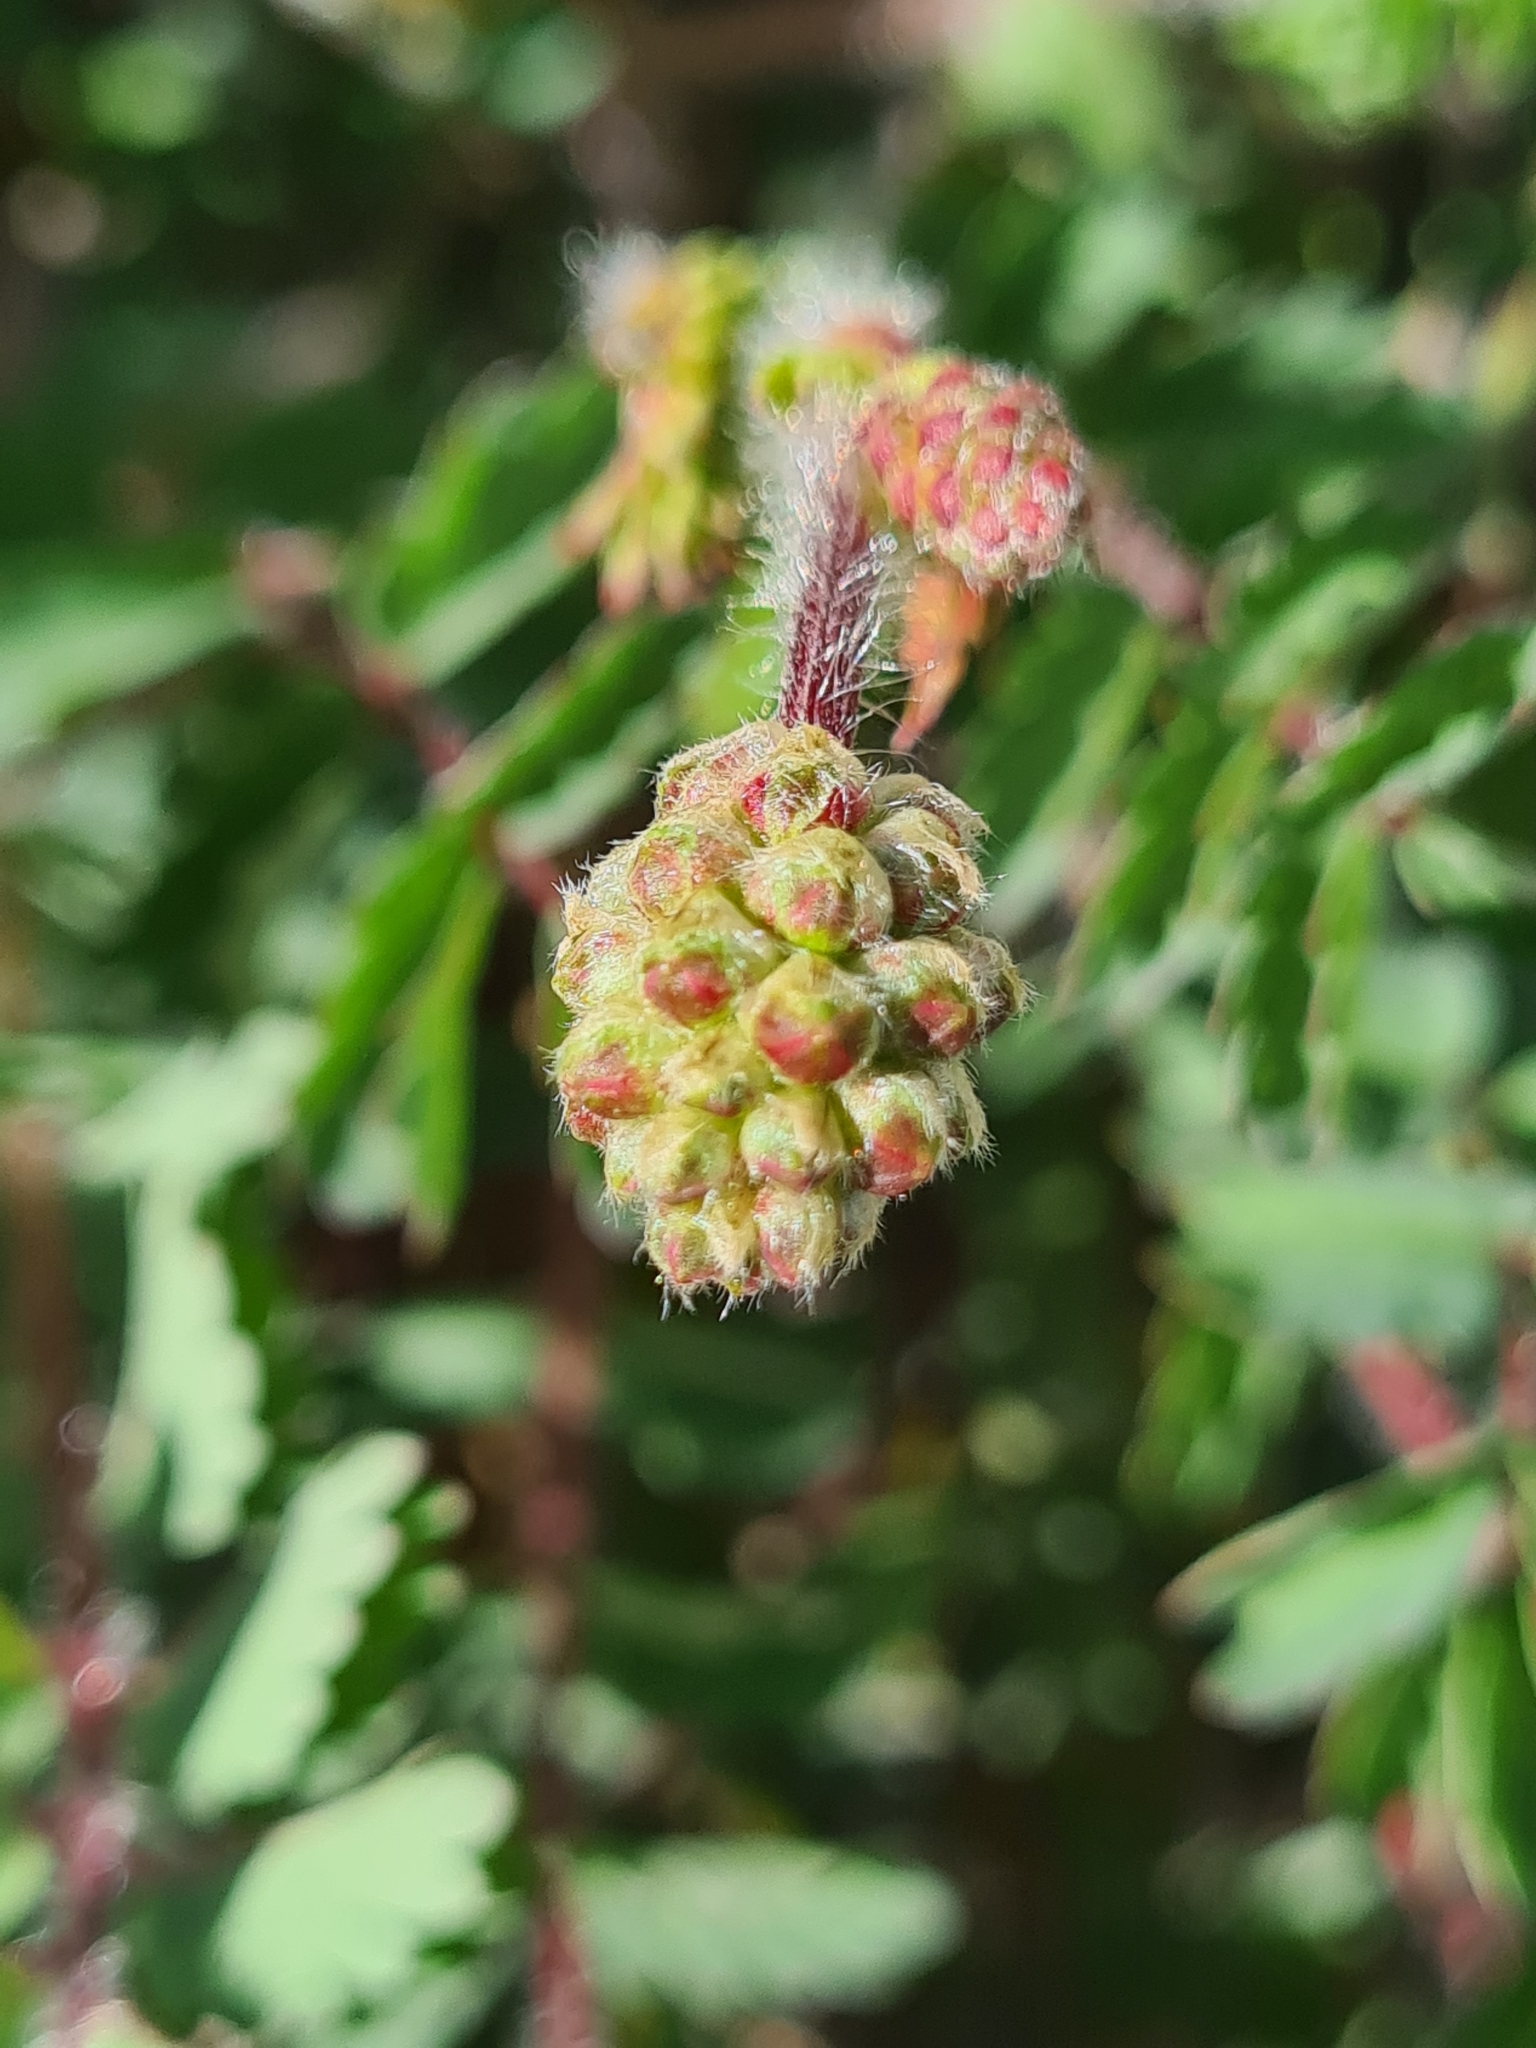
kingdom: Plantae
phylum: Tracheophyta
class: Magnoliopsida
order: Rosales
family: Rosaceae
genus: Poterium
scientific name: Poterium sanguisorba
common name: Salad burnet
